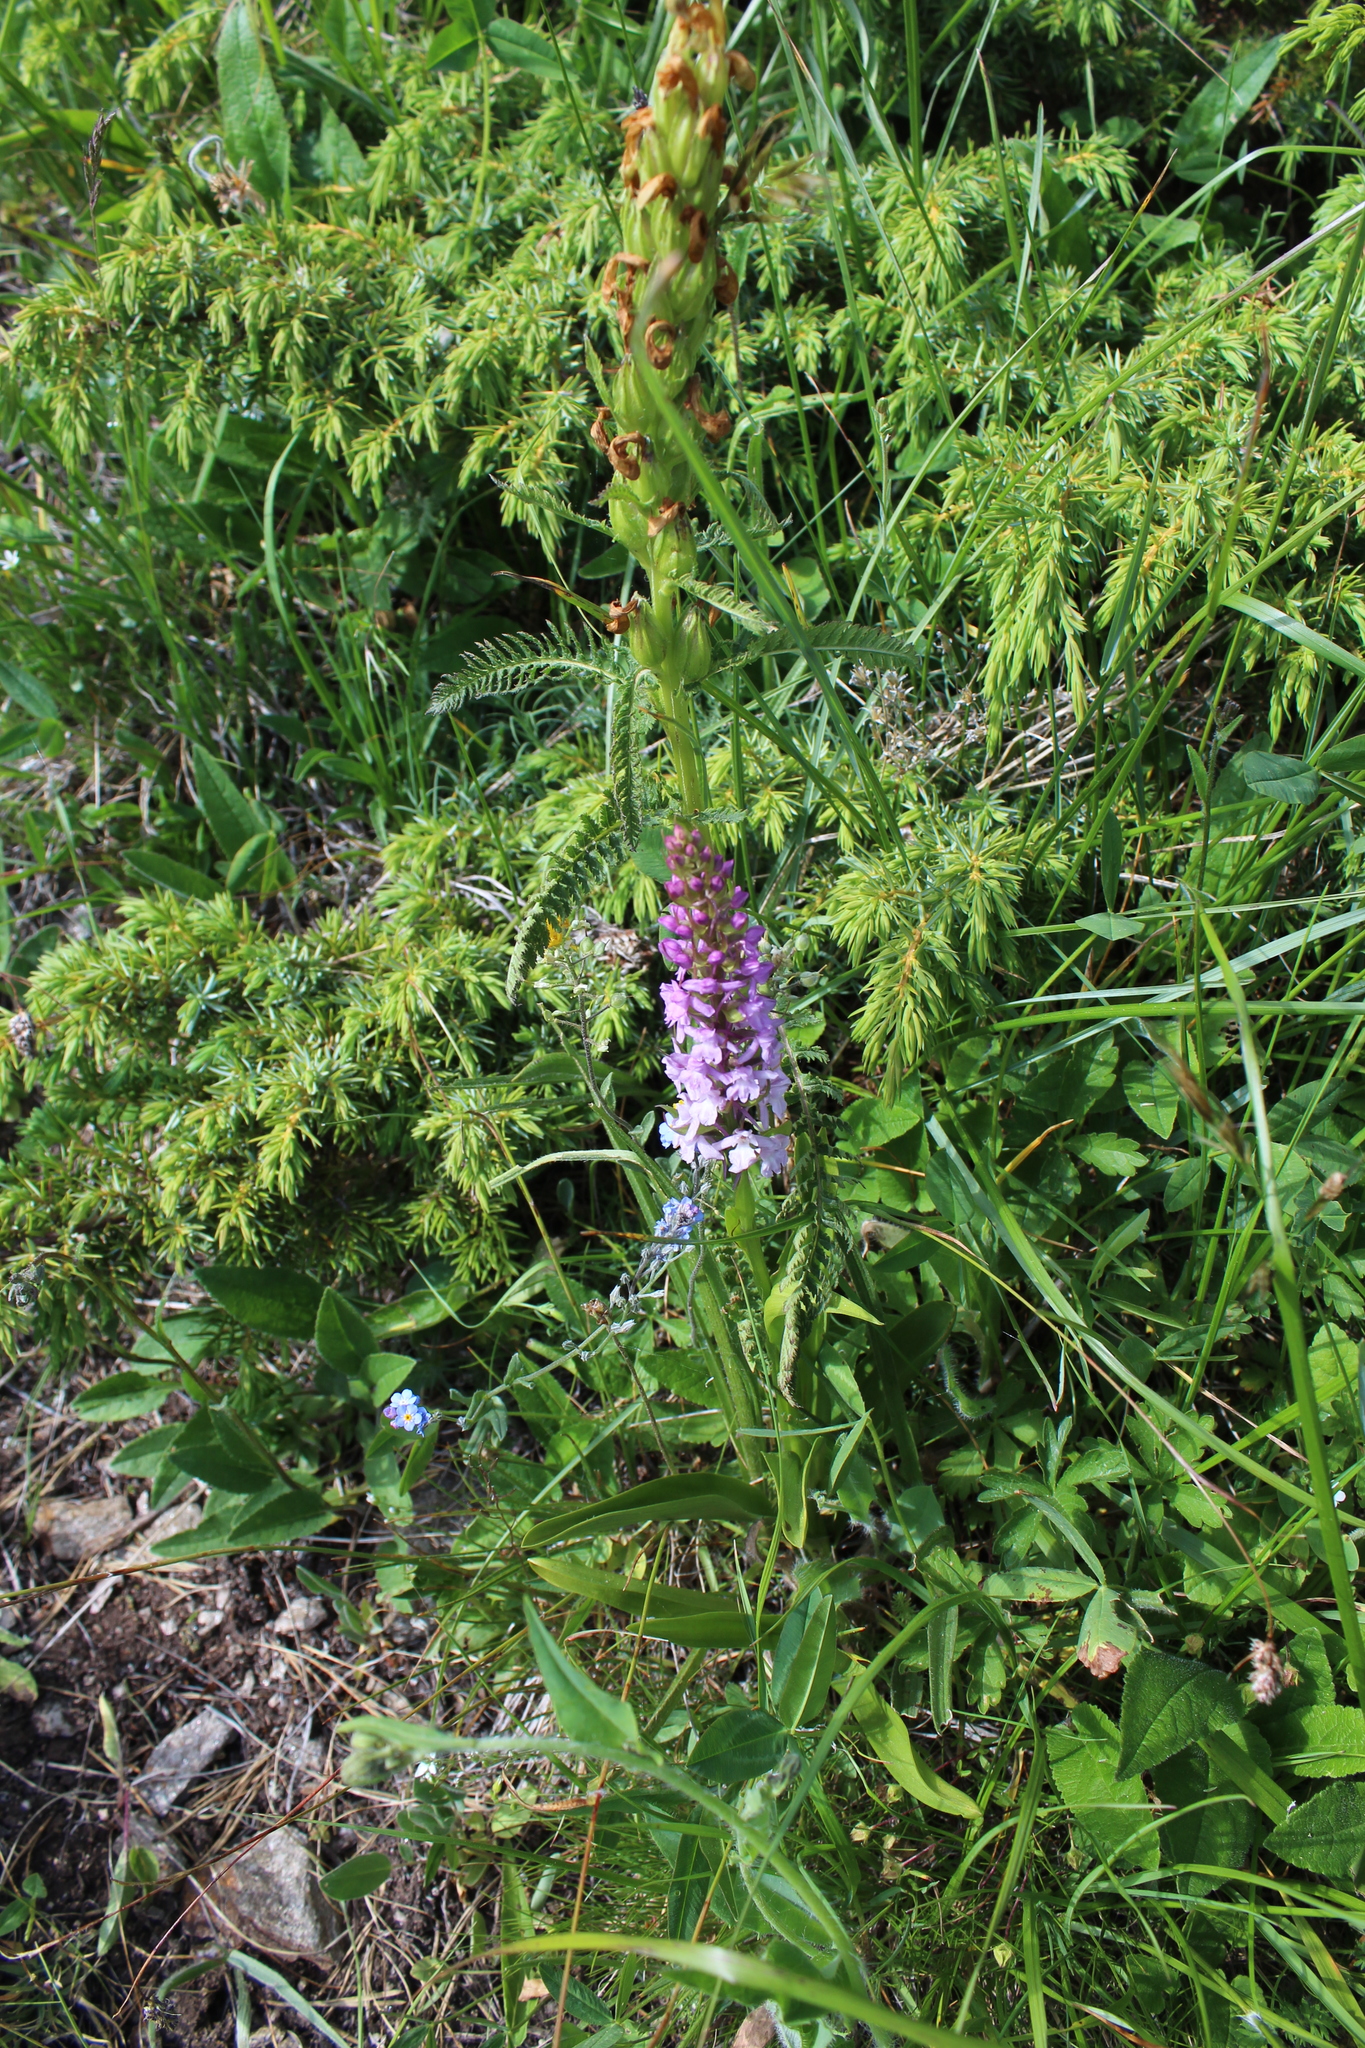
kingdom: Plantae
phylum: Tracheophyta
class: Liliopsida
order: Asparagales
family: Orchidaceae
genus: Gymnadenia
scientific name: Gymnadenia conopsea
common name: Fragrant orchid
